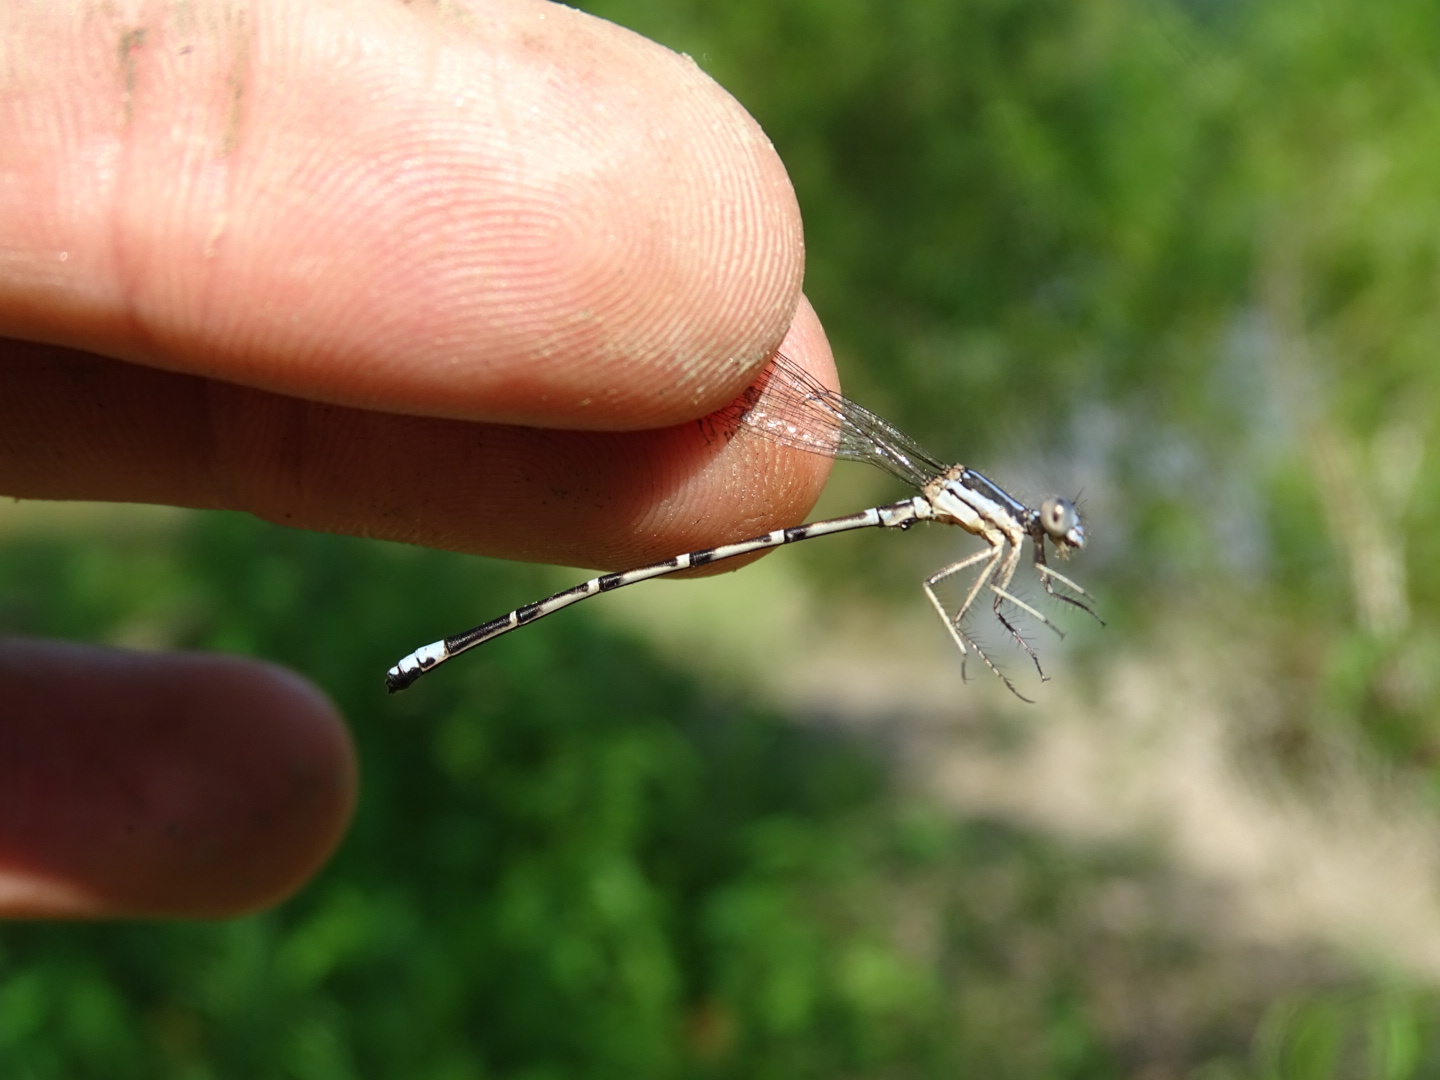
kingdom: Animalia
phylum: Arthropoda
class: Insecta
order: Odonata
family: Coenagrionidae
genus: Argia
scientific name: Argia sedula
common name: Blue-ringed dancer
